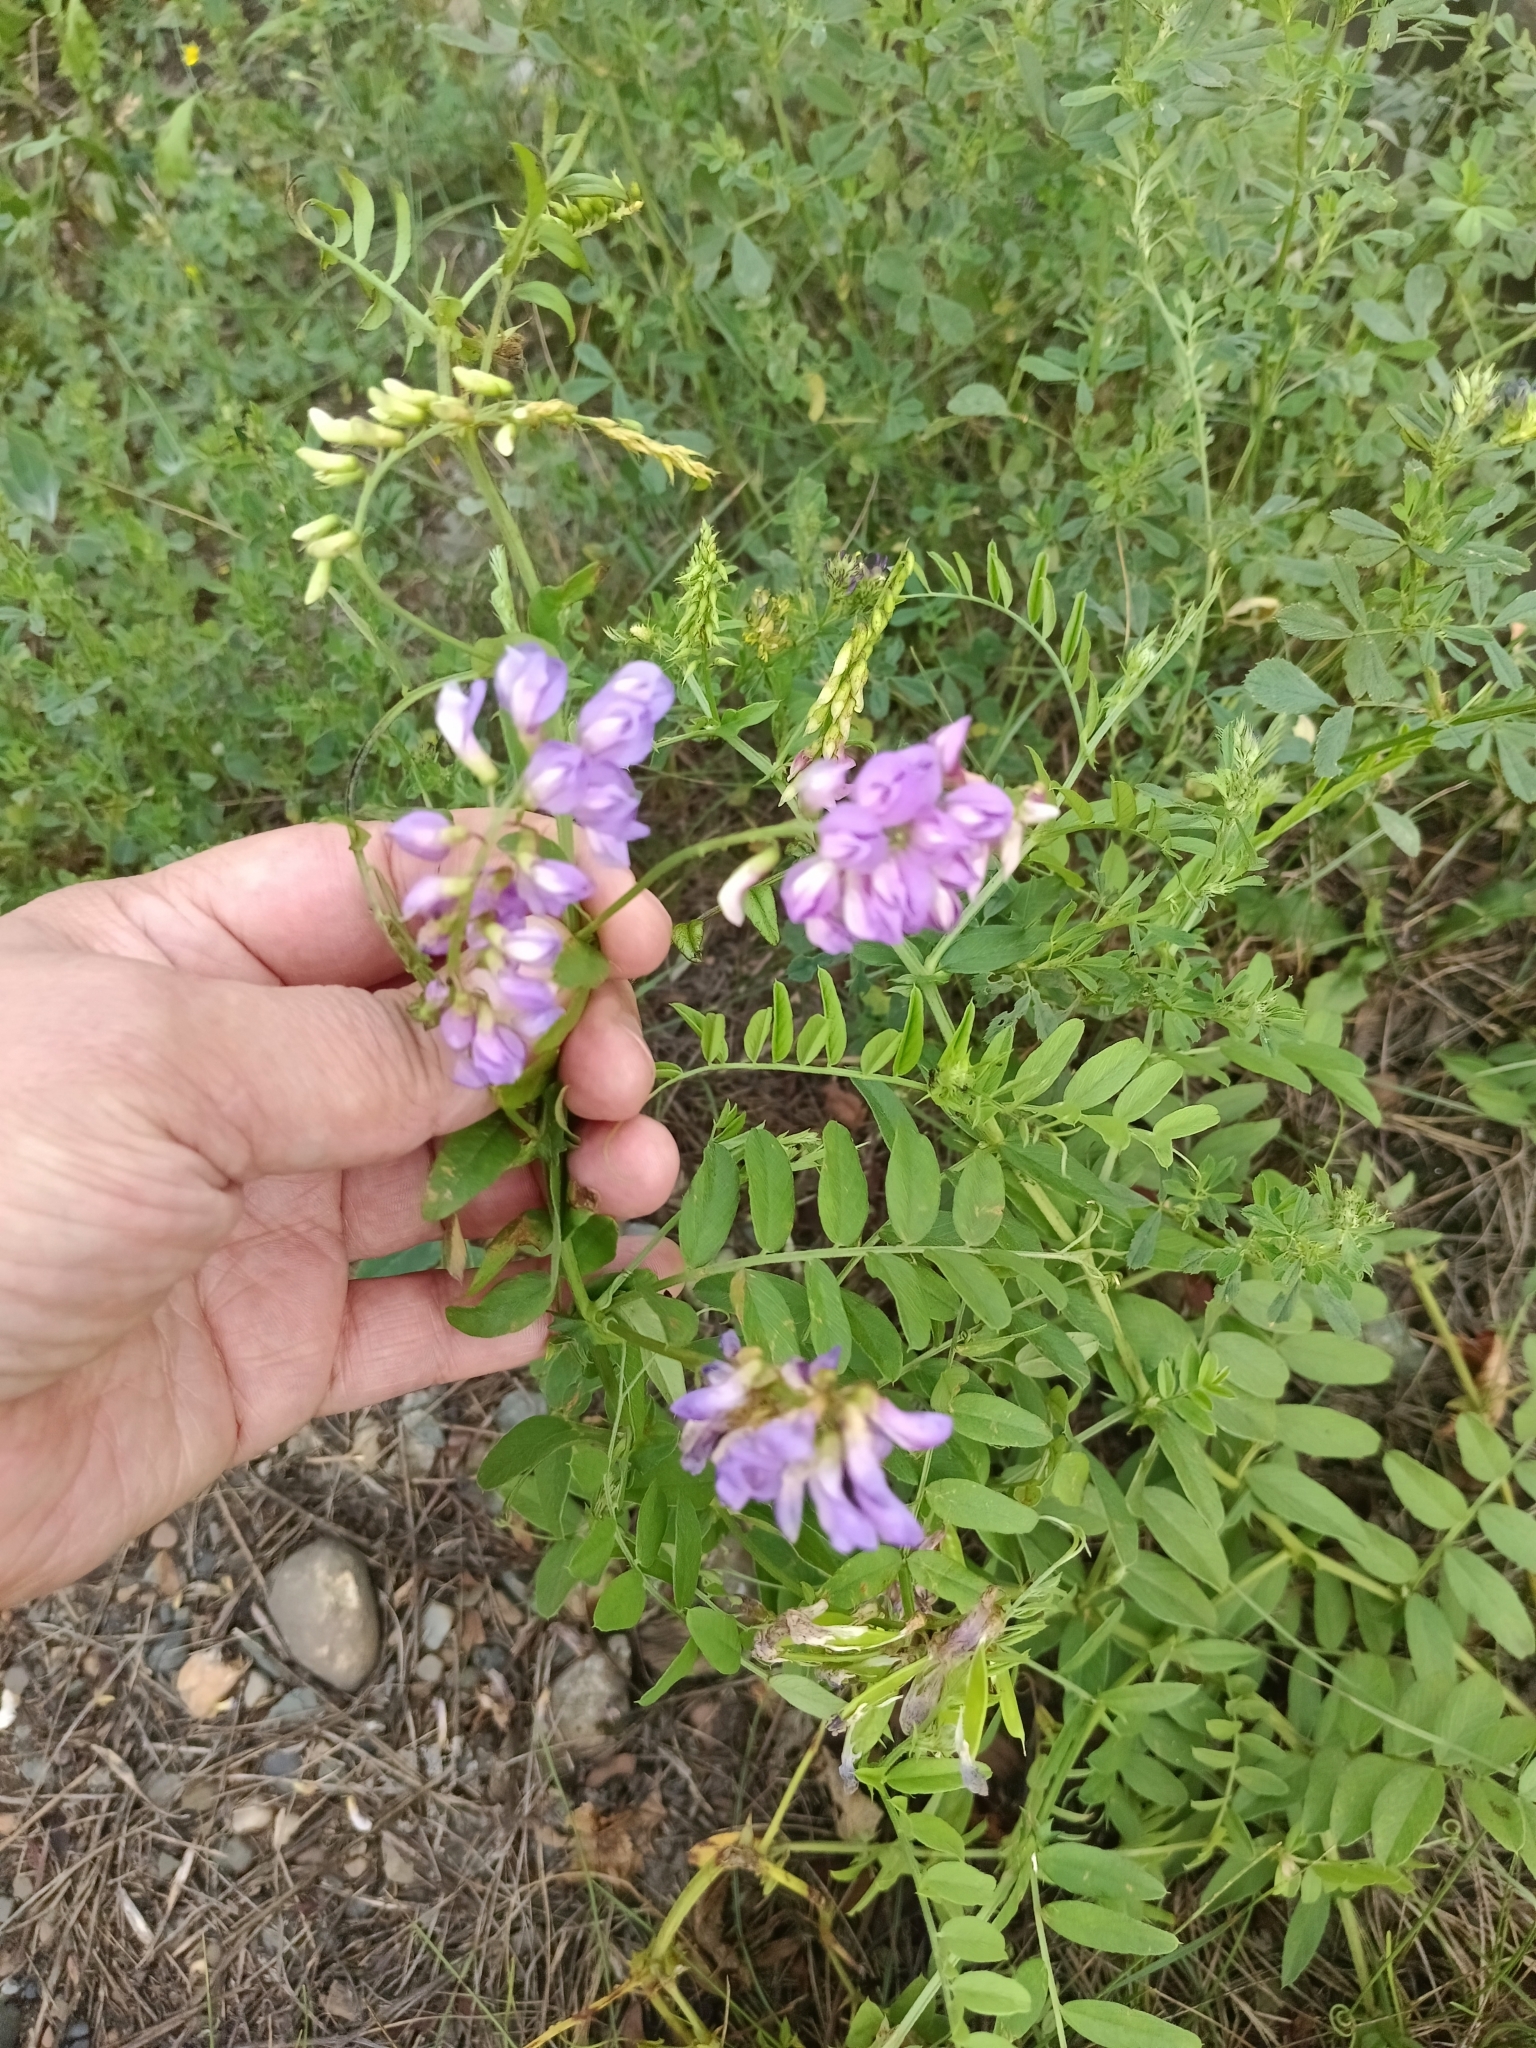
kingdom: Plantae
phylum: Tracheophyta
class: Magnoliopsida
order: Fabales
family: Fabaceae
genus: Vicia
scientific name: Vicia amoena
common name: Cheder ebs
